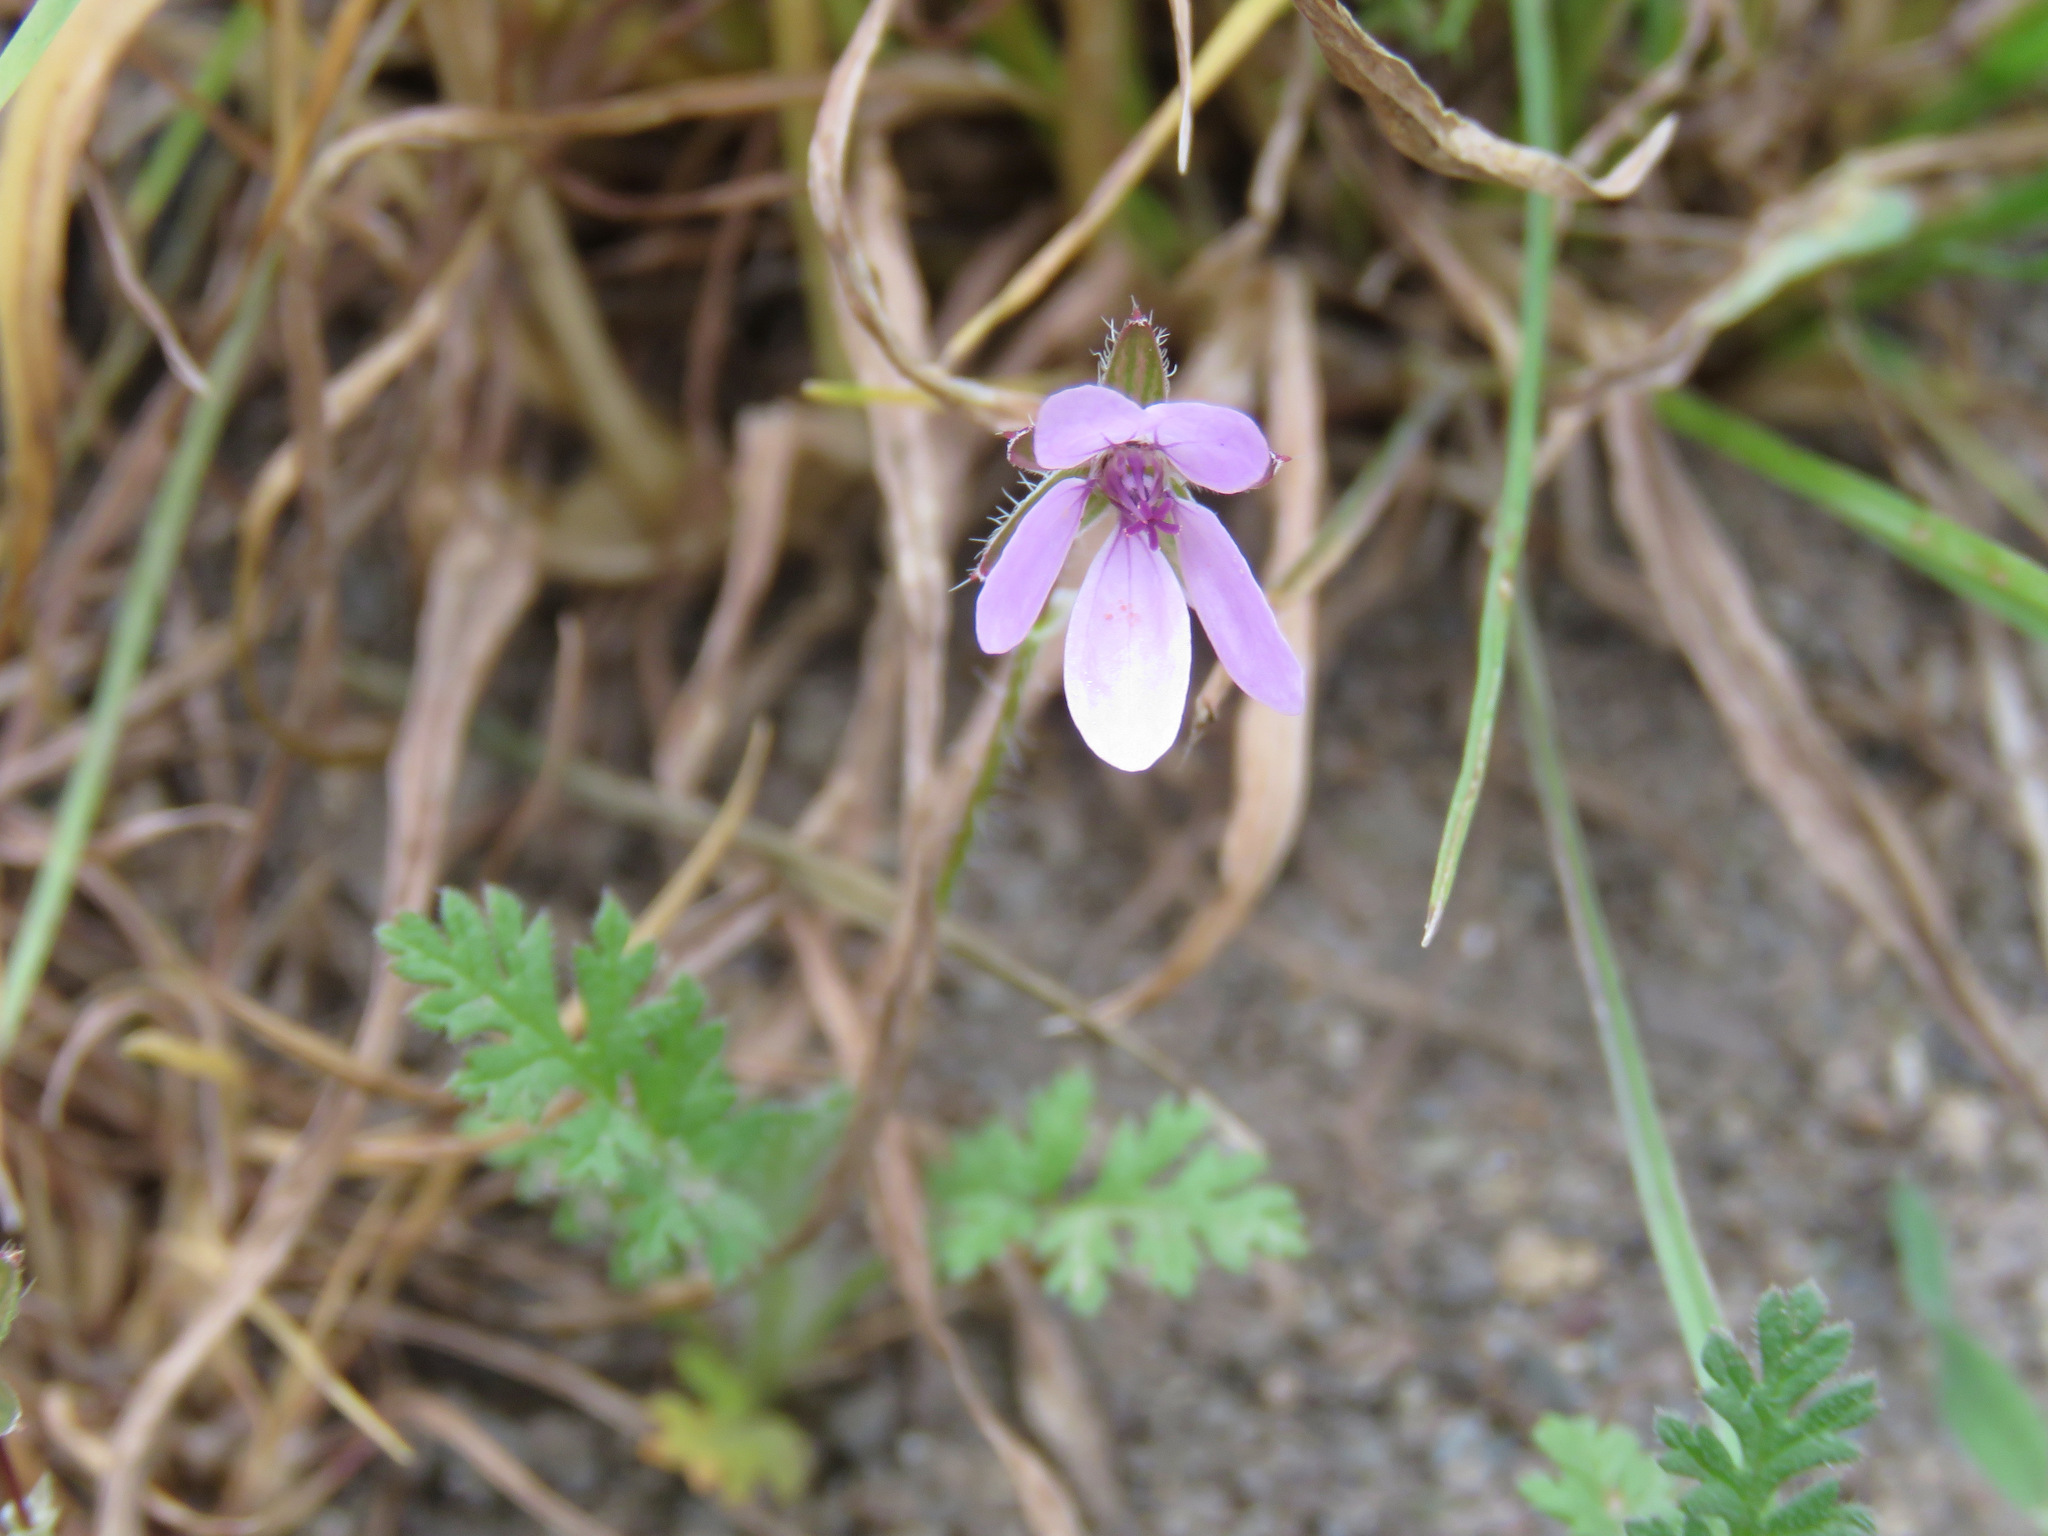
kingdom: Plantae
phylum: Tracheophyta
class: Magnoliopsida
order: Geraniales
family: Geraniaceae
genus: Erodium
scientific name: Erodium cicutarium
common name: Common stork's-bill
